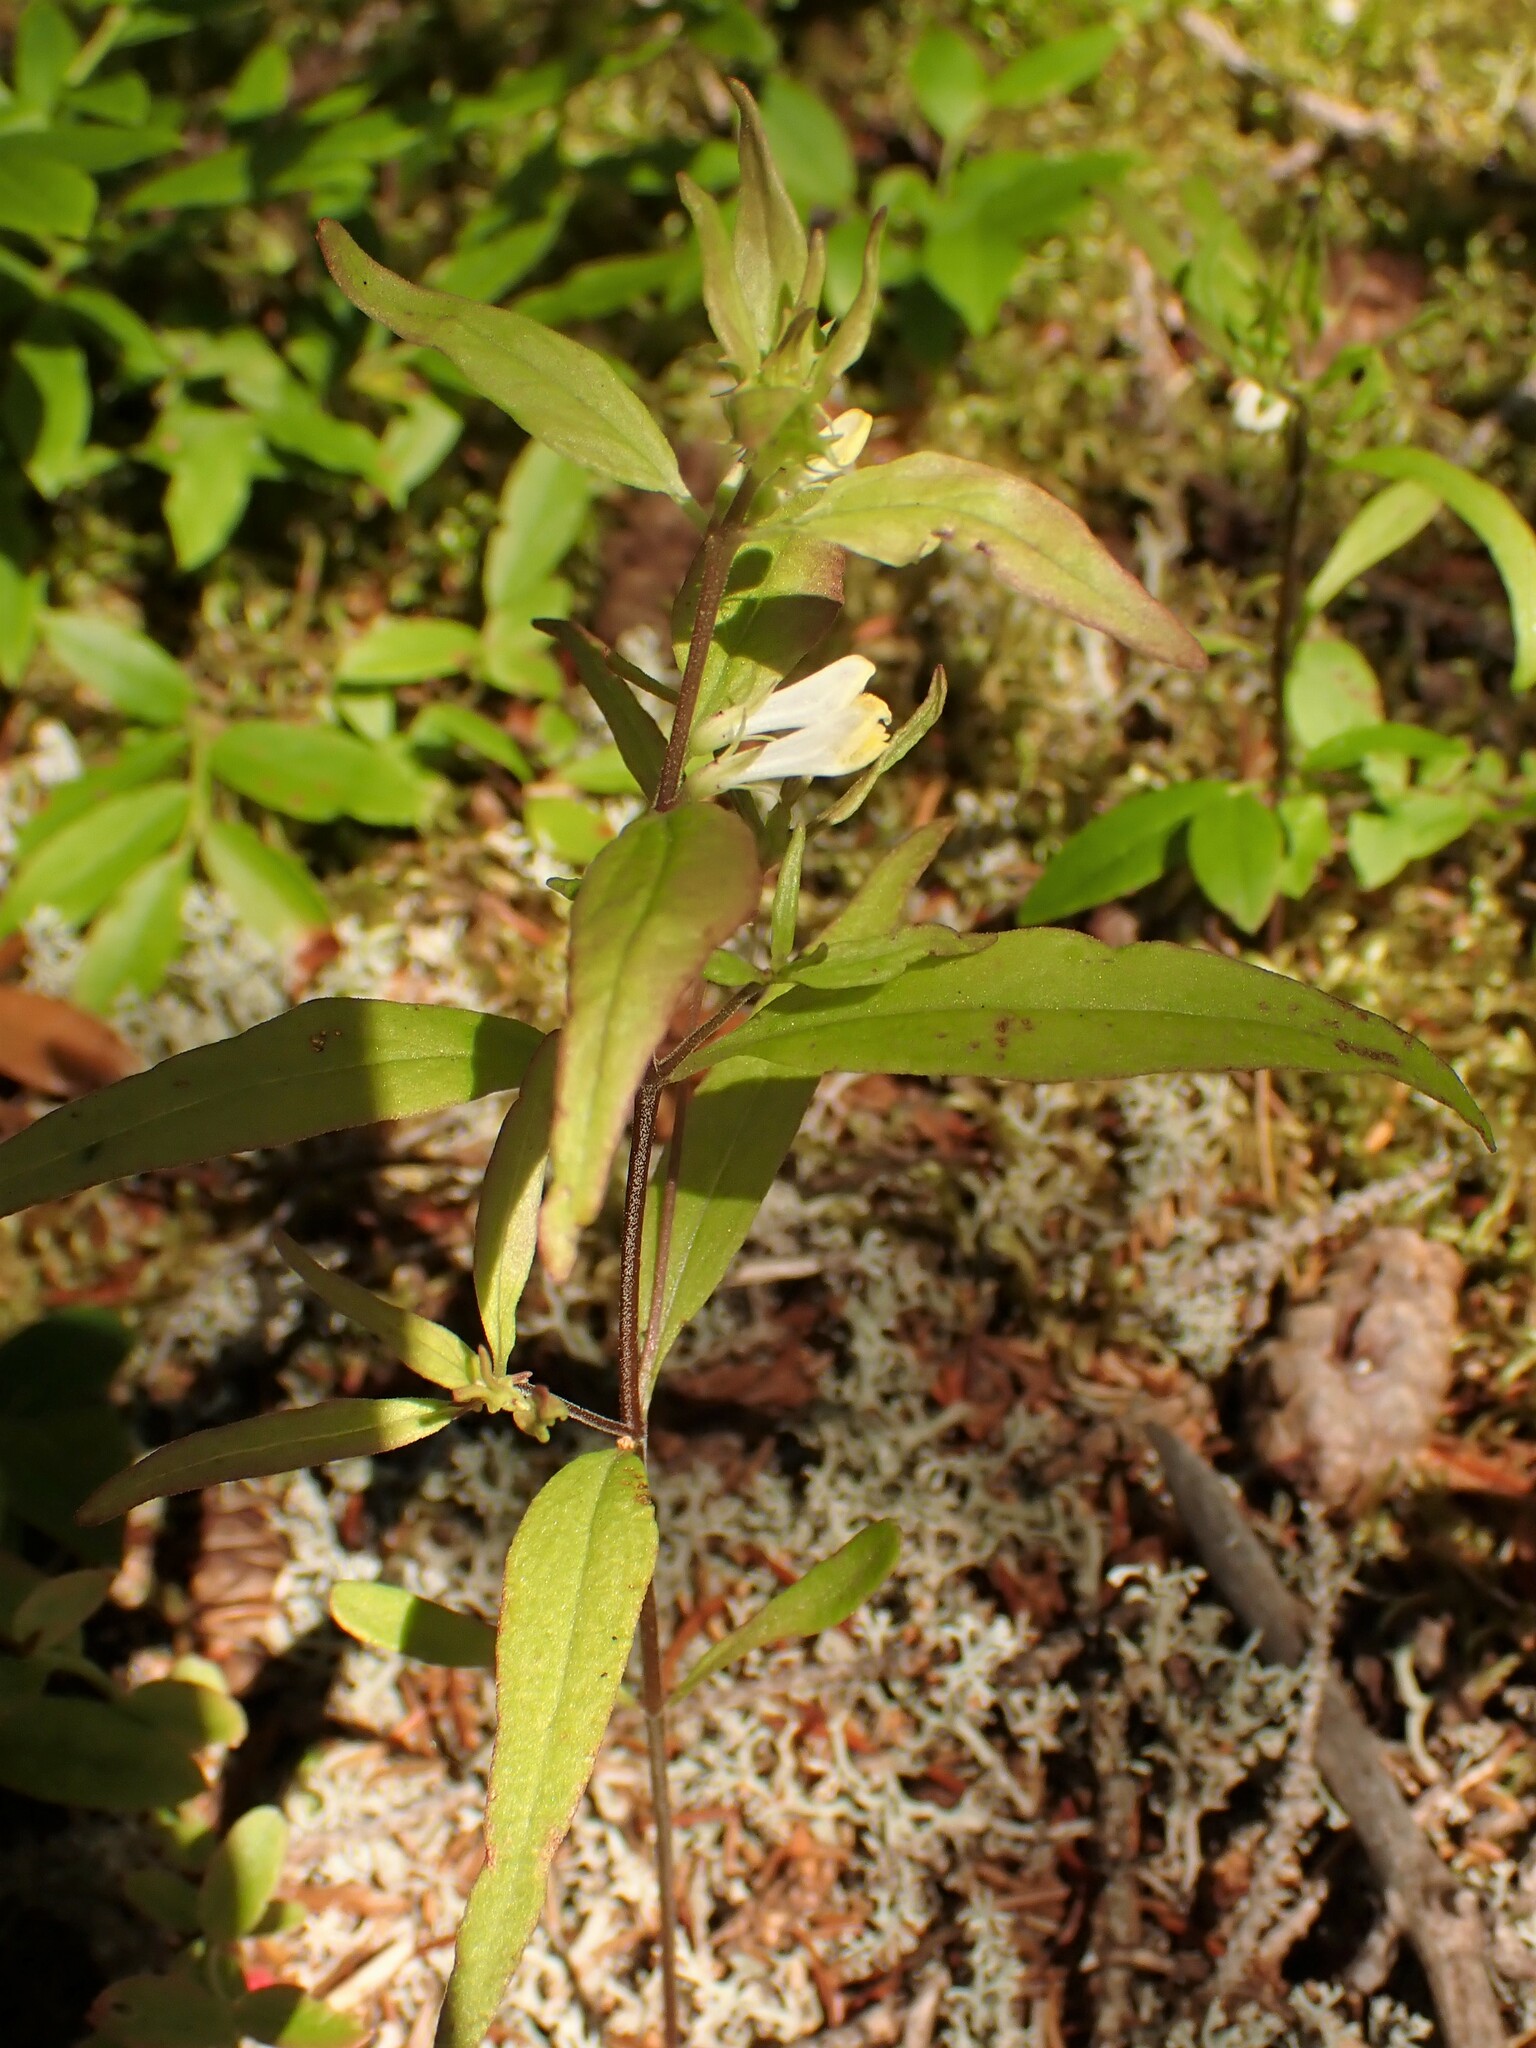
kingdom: Plantae
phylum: Tracheophyta
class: Magnoliopsida
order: Lamiales
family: Orobanchaceae
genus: Melampyrum
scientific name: Melampyrum lineare
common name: American cow-wheat
